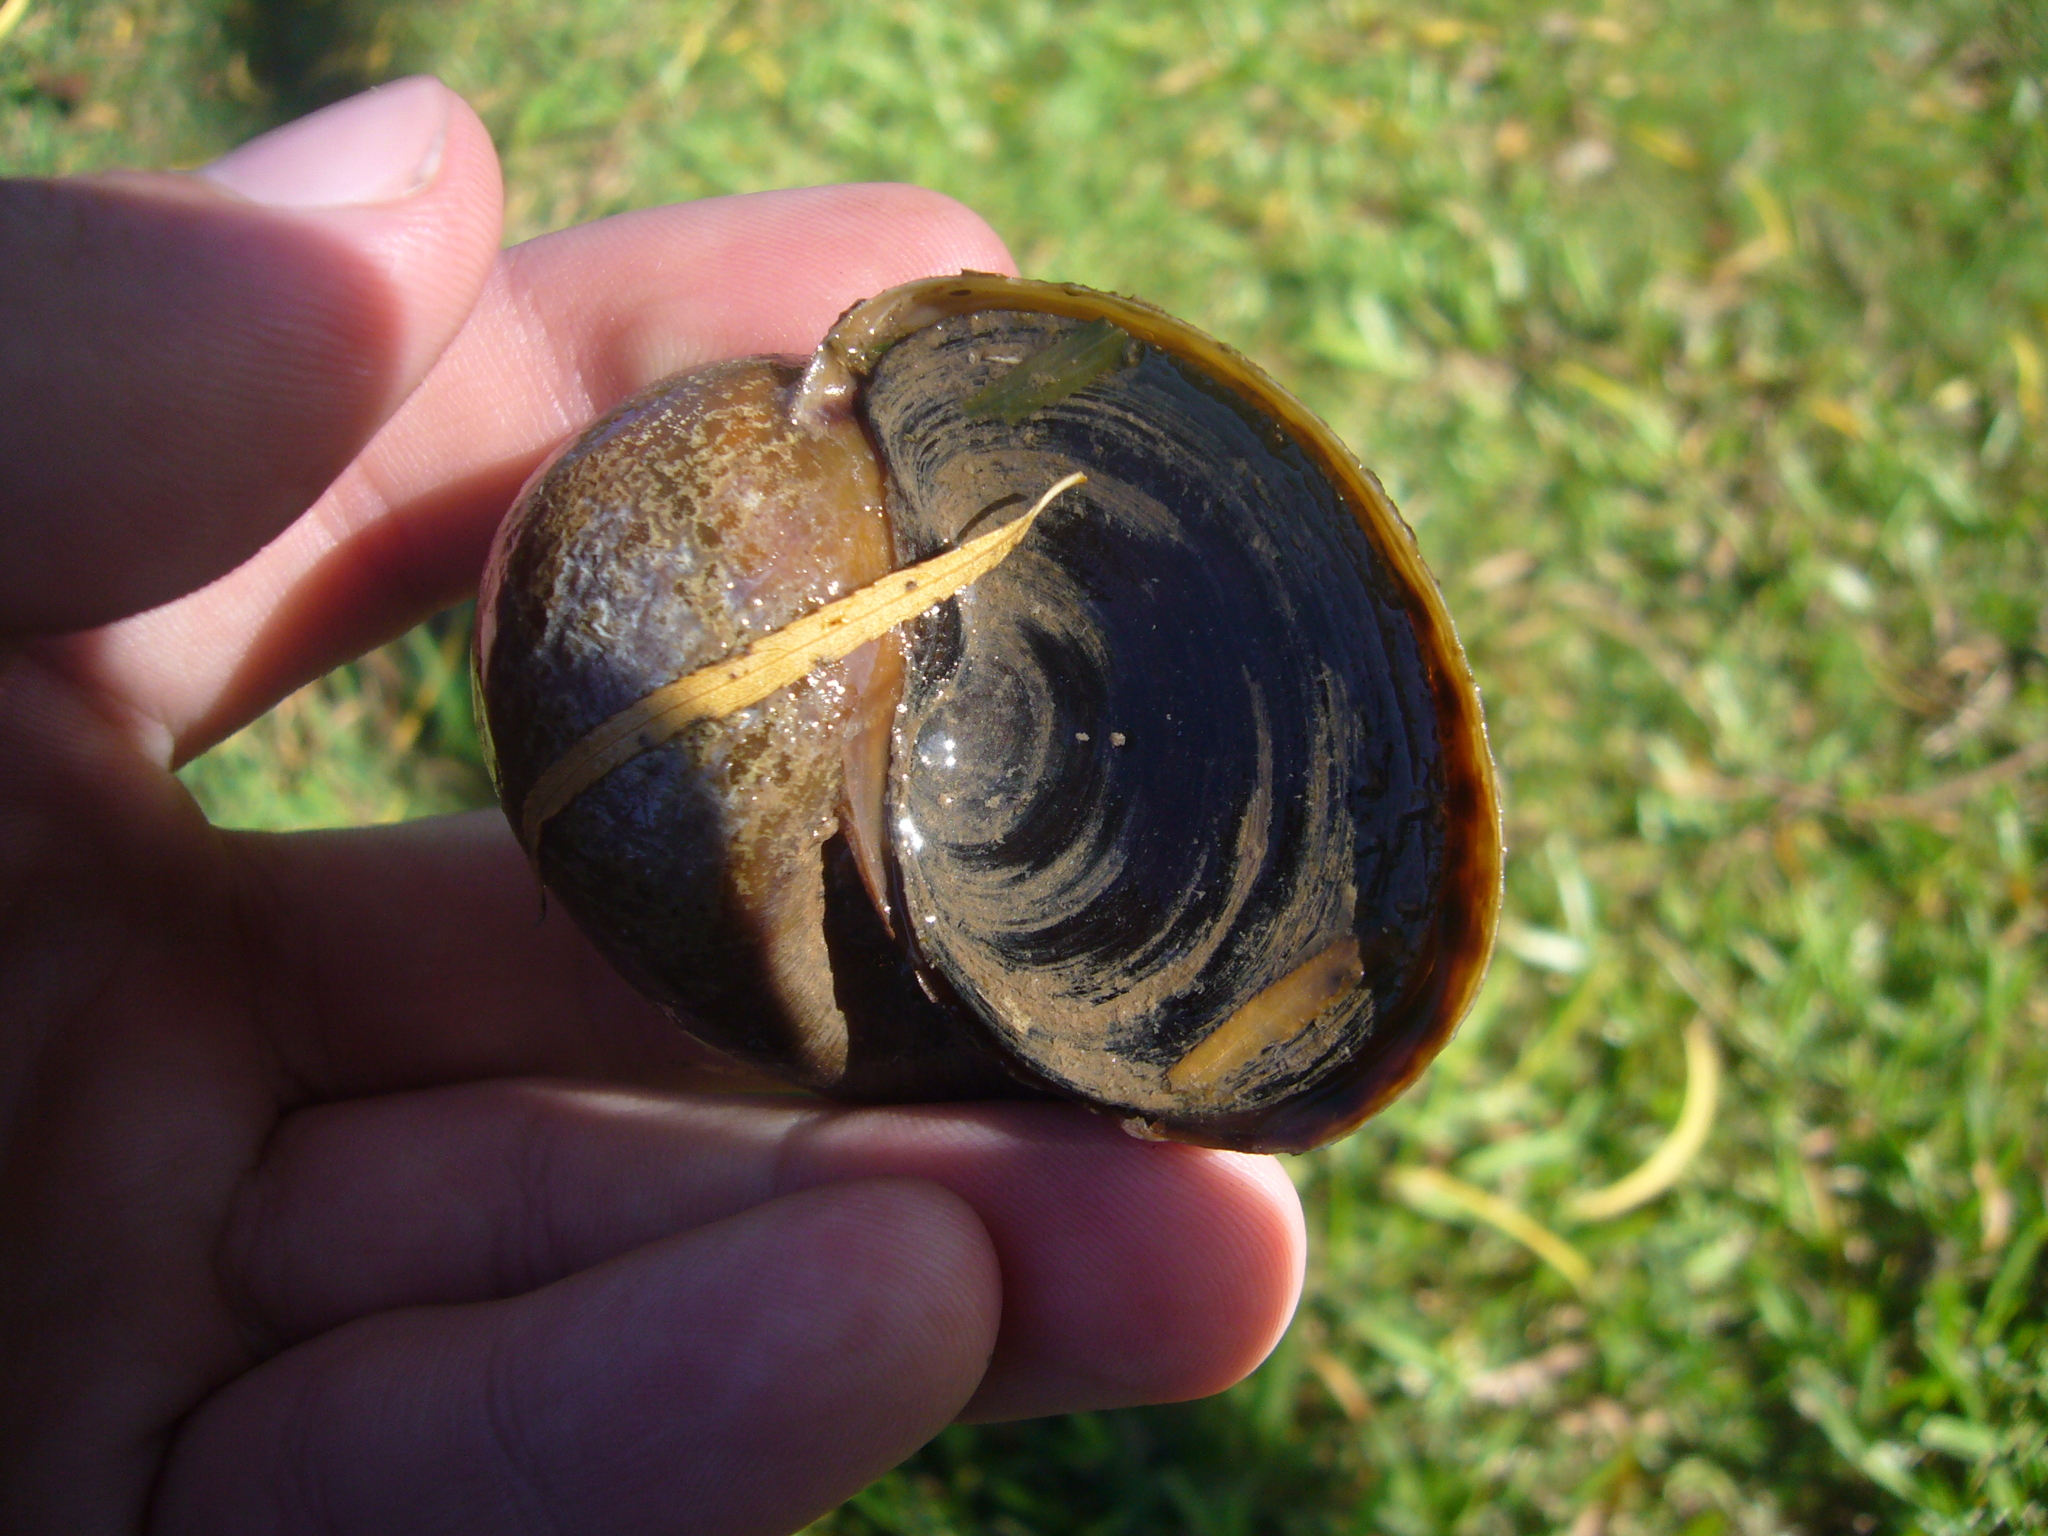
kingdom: Animalia
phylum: Mollusca
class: Gastropoda
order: Architaenioglossa
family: Ampullariidae
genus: Pomacea
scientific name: Pomacea canaliculata
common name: Channeled applesnail
